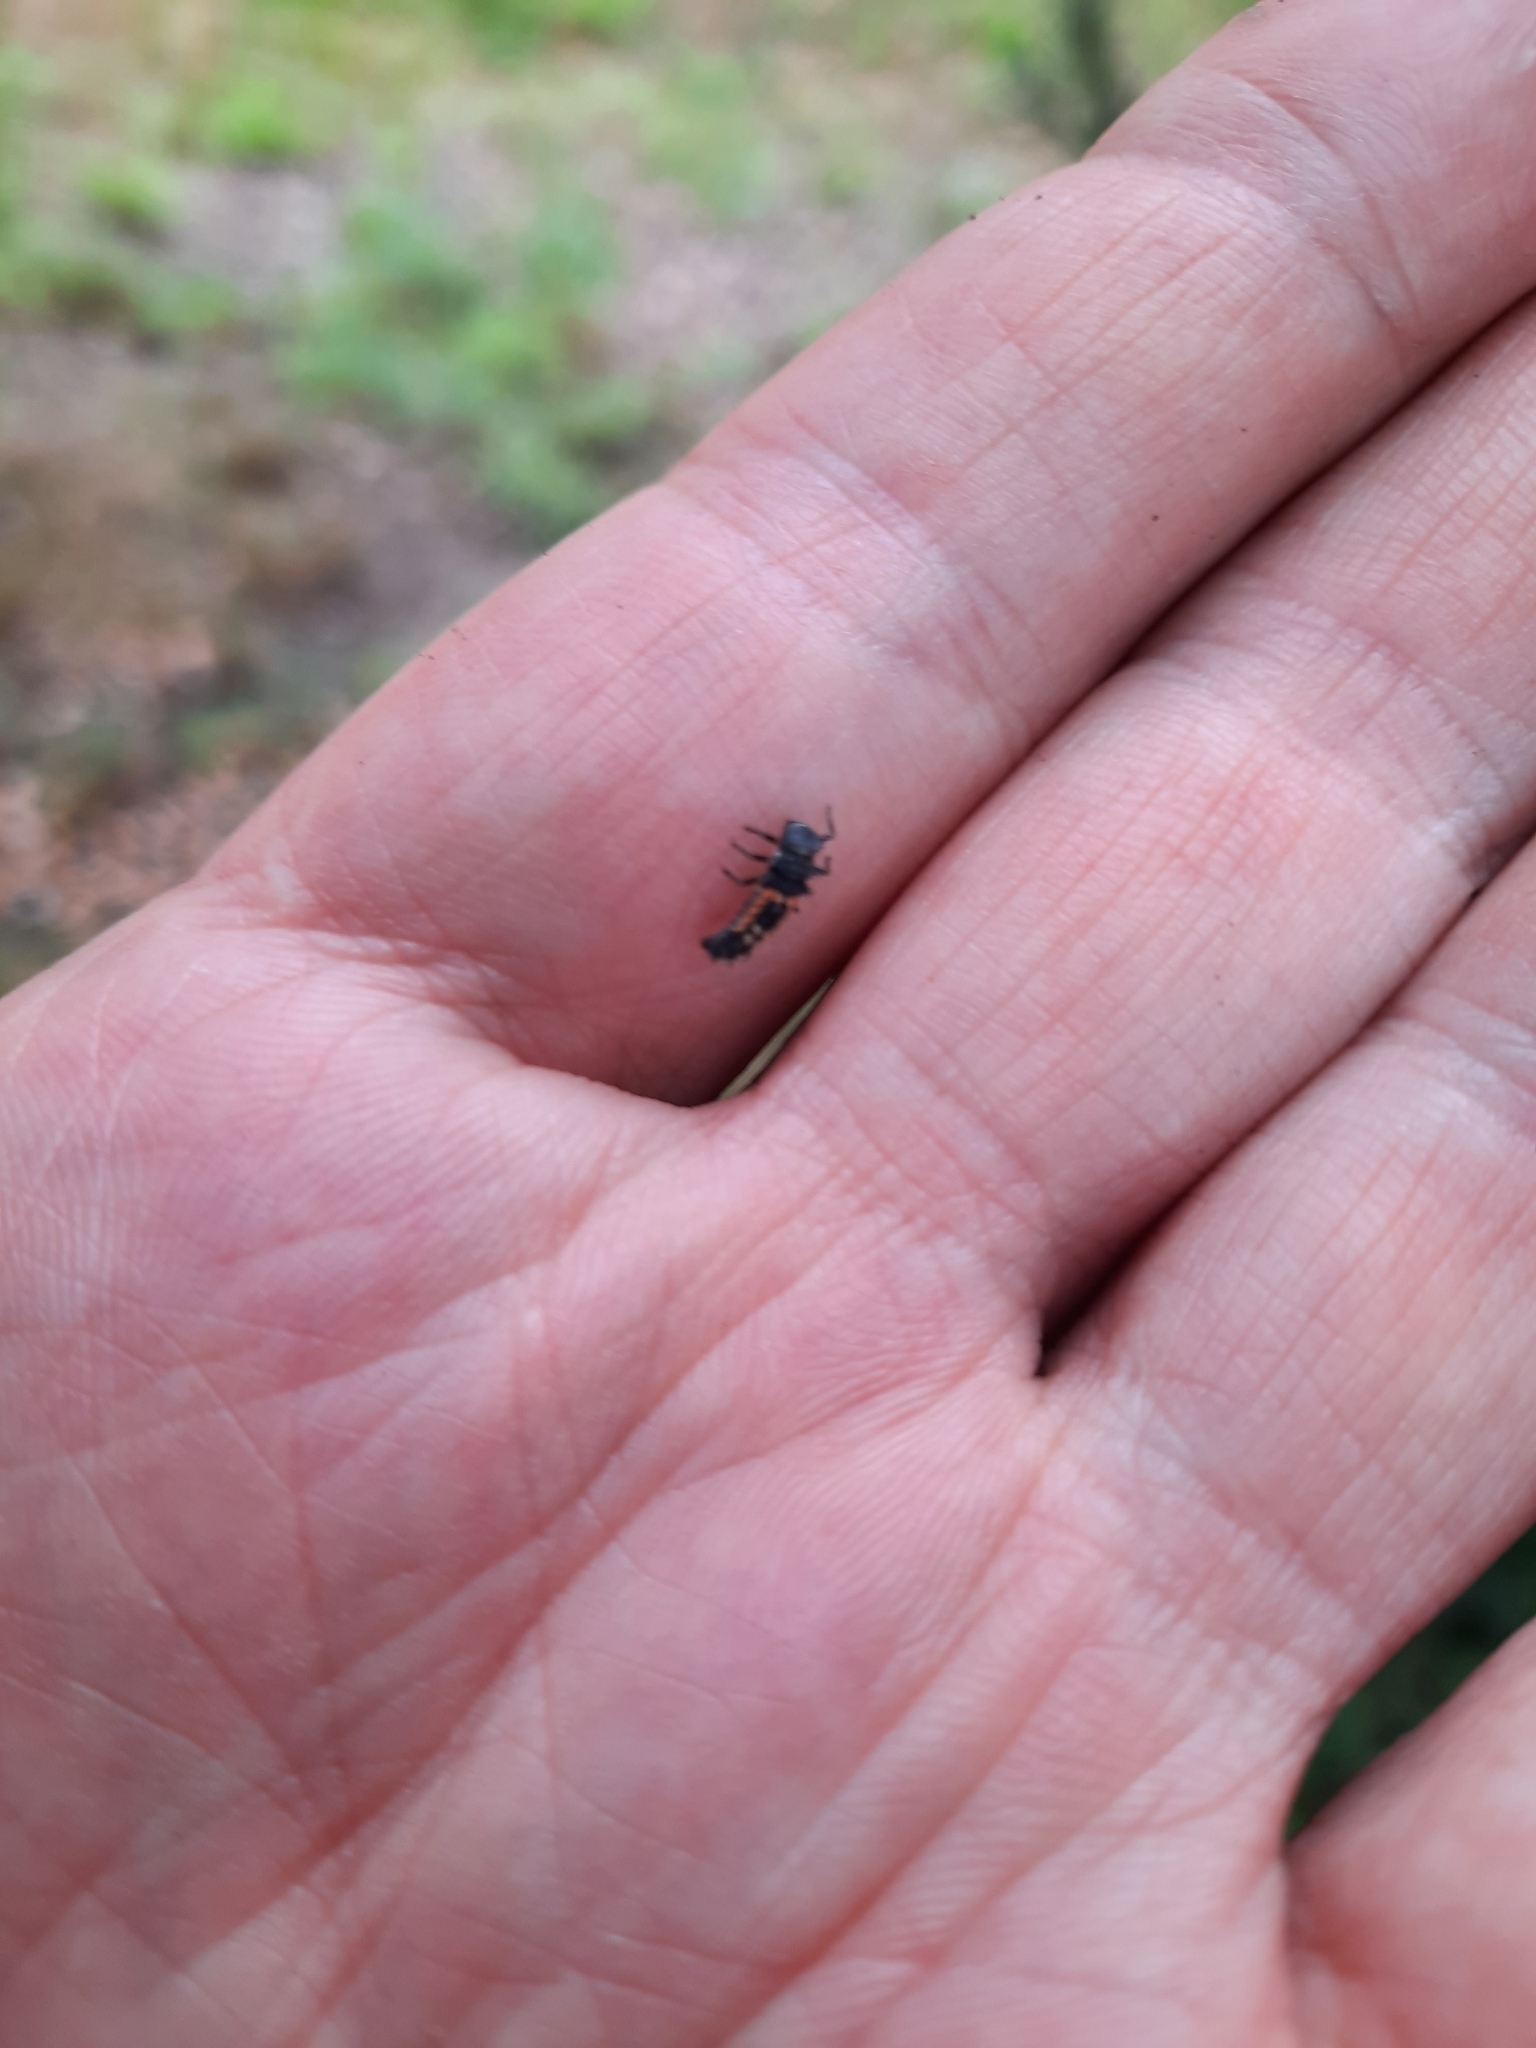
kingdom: Animalia
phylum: Arthropoda
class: Insecta
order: Coleoptera
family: Coccinellidae
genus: Harmonia
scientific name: Harmonia axyridis
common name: Harlequin ladybird
